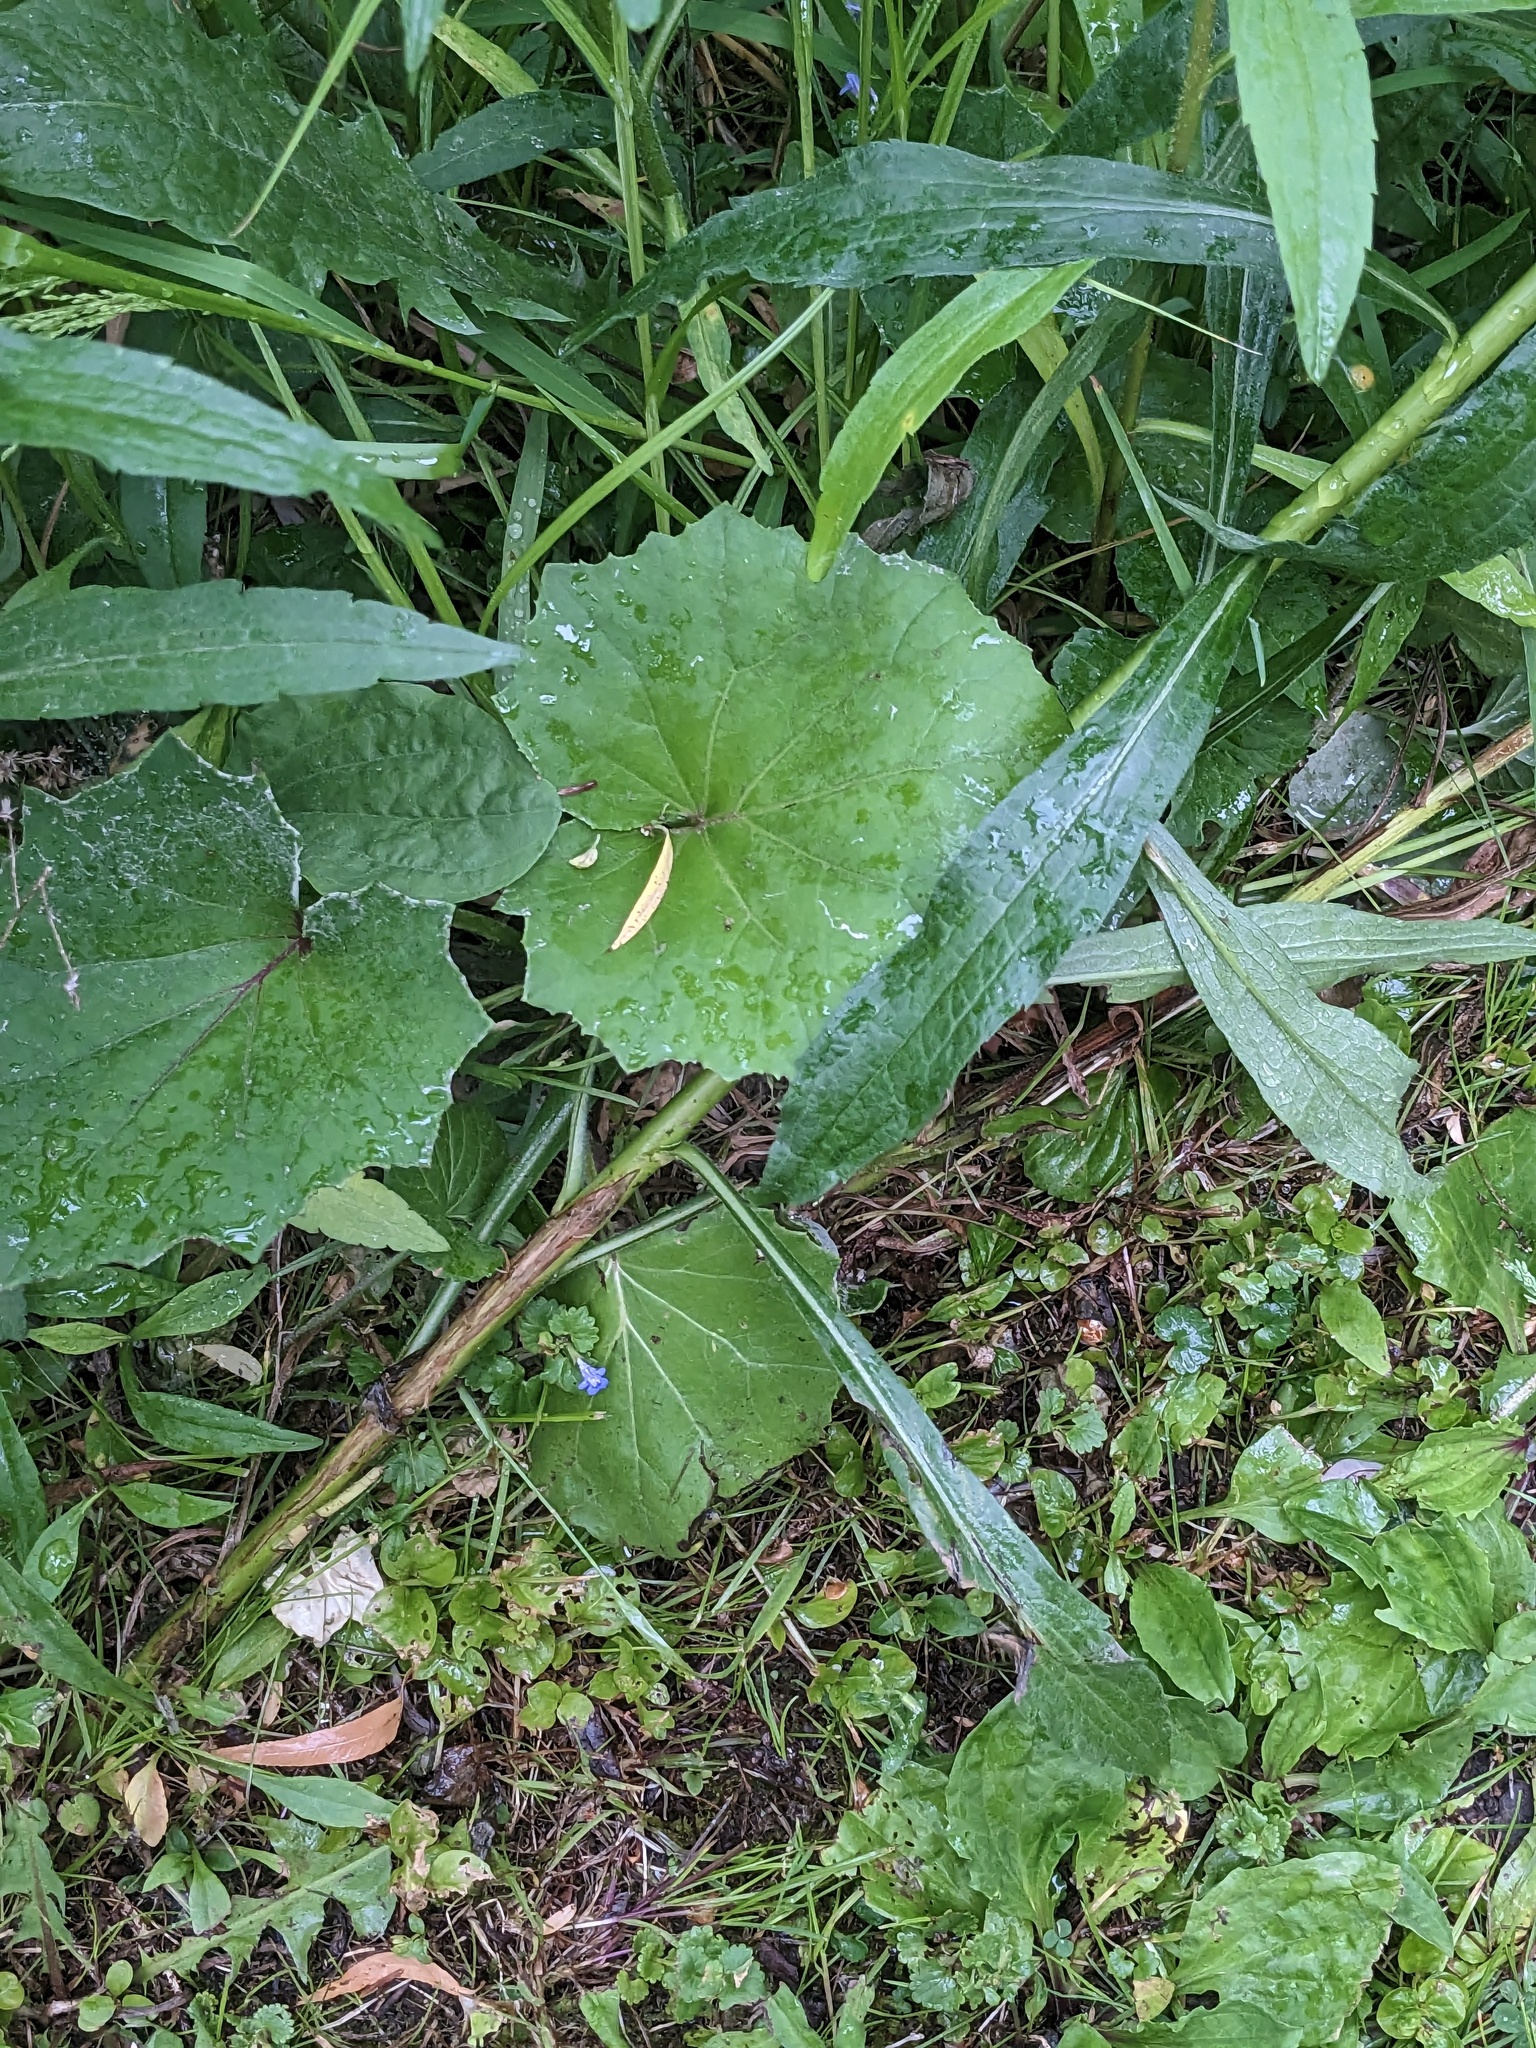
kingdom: Plantae
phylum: Tracheophyta
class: Magnoliopsida
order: Asterales
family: Asteraceae
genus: Tussilago
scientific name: Tussilago farfara
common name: Coltsfoot
